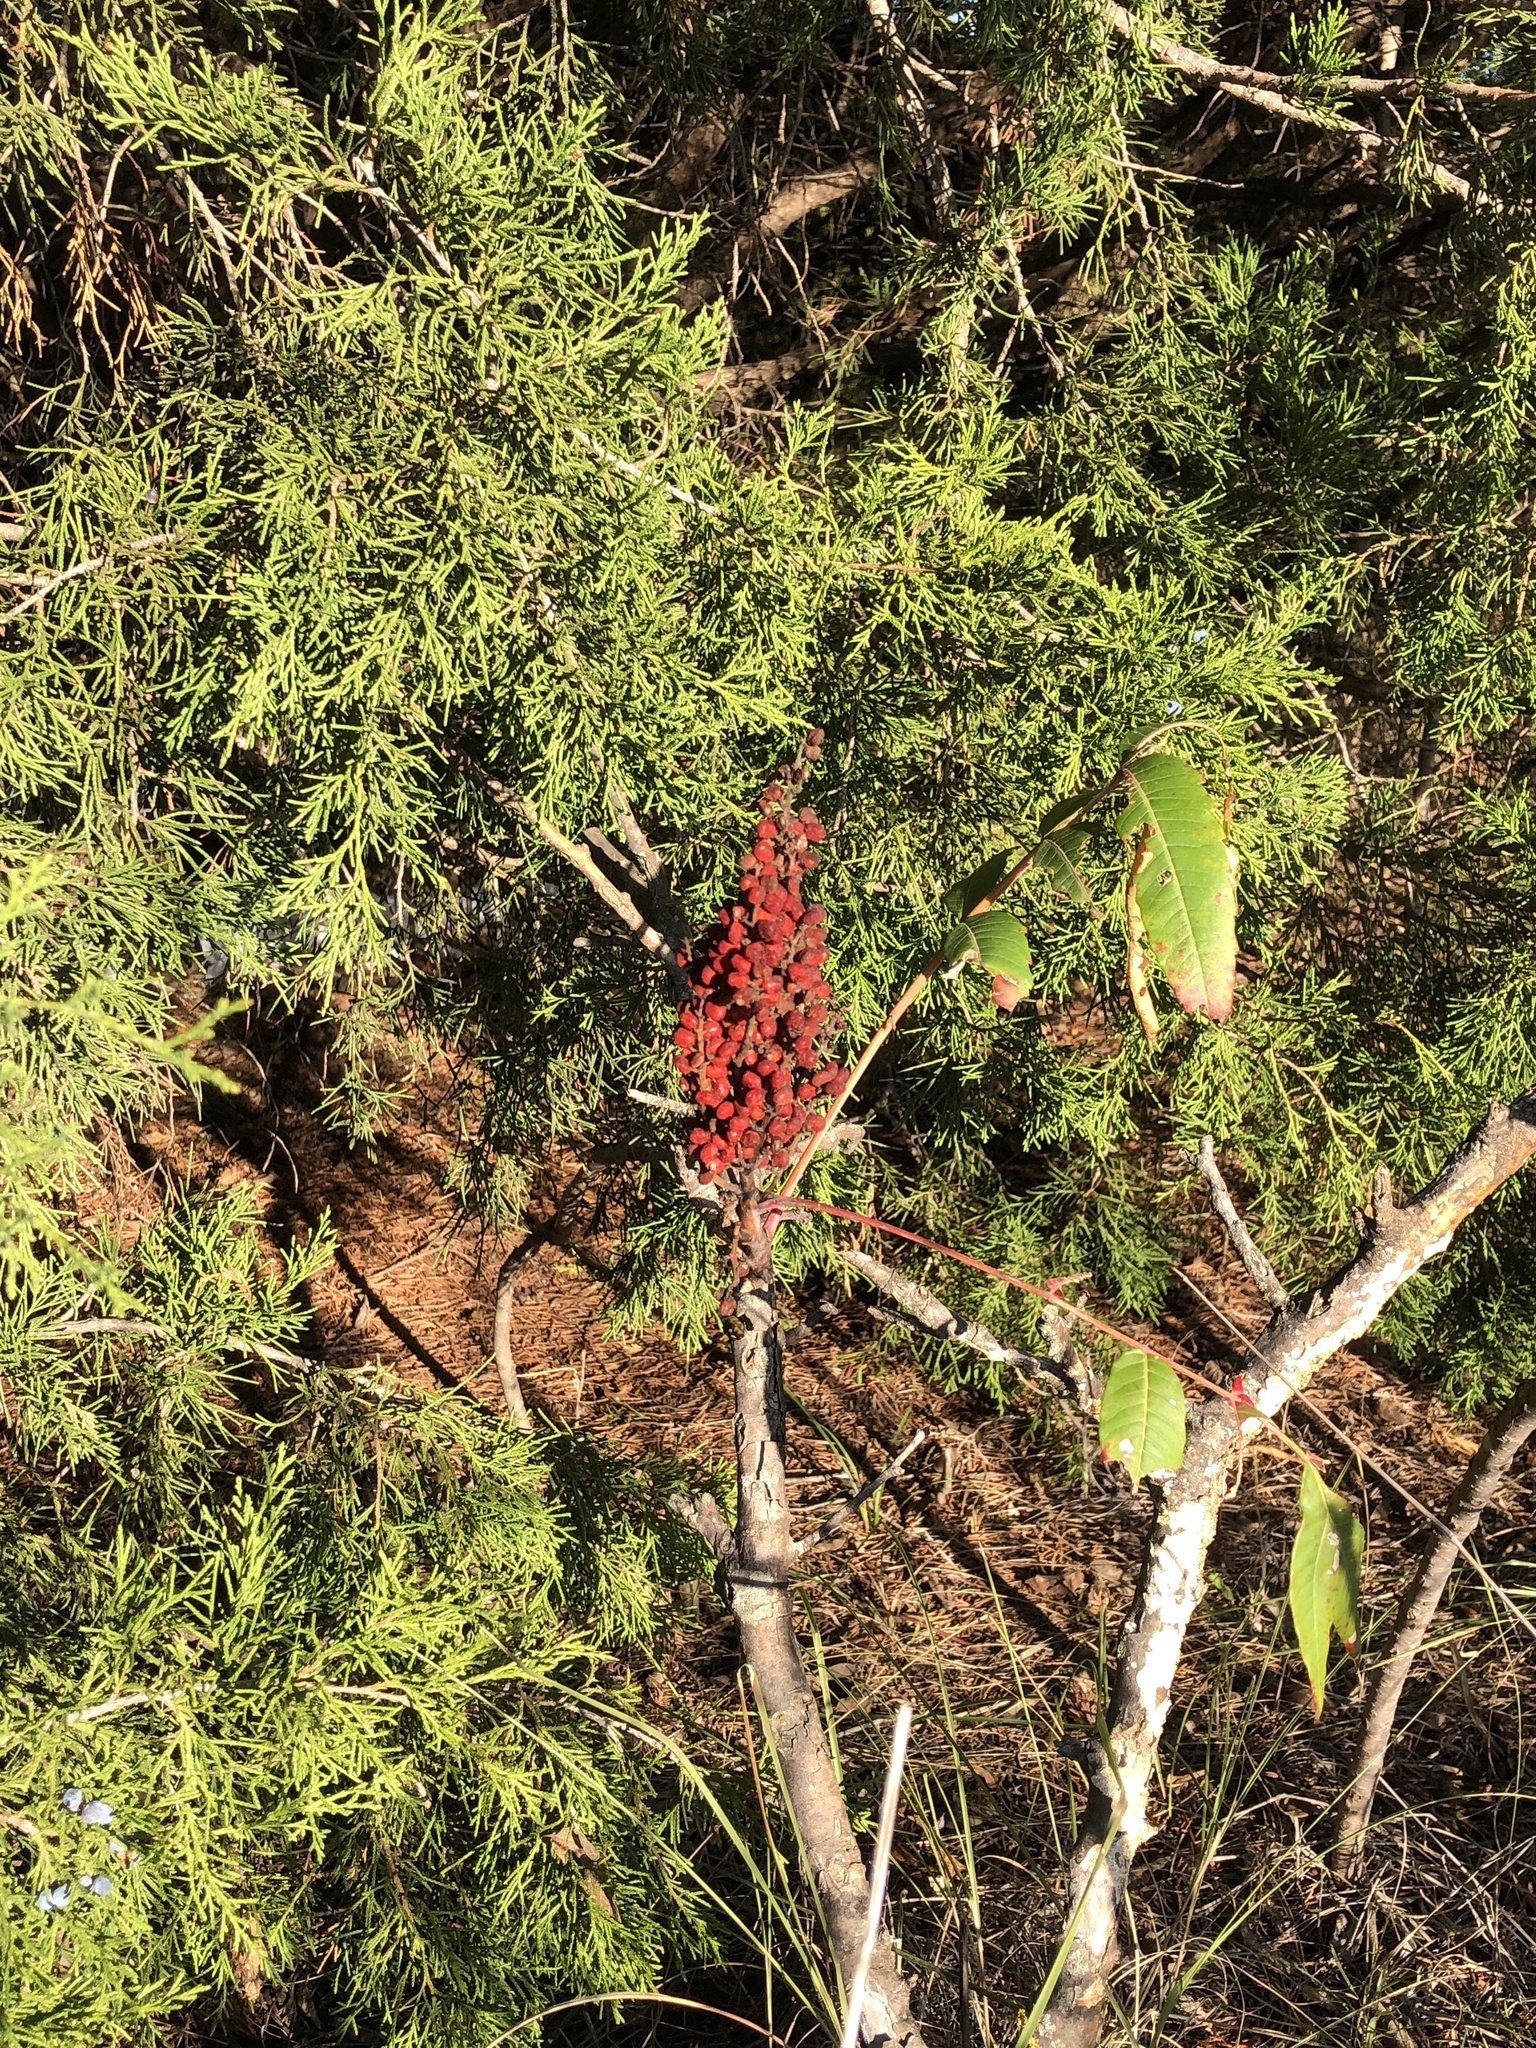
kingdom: Plantae
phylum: Tracheophyta
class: Magnoliopsida
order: Sapindales
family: Anacardiaceae
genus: Rhus
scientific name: Rhus glabra
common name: Scarlet sumac
